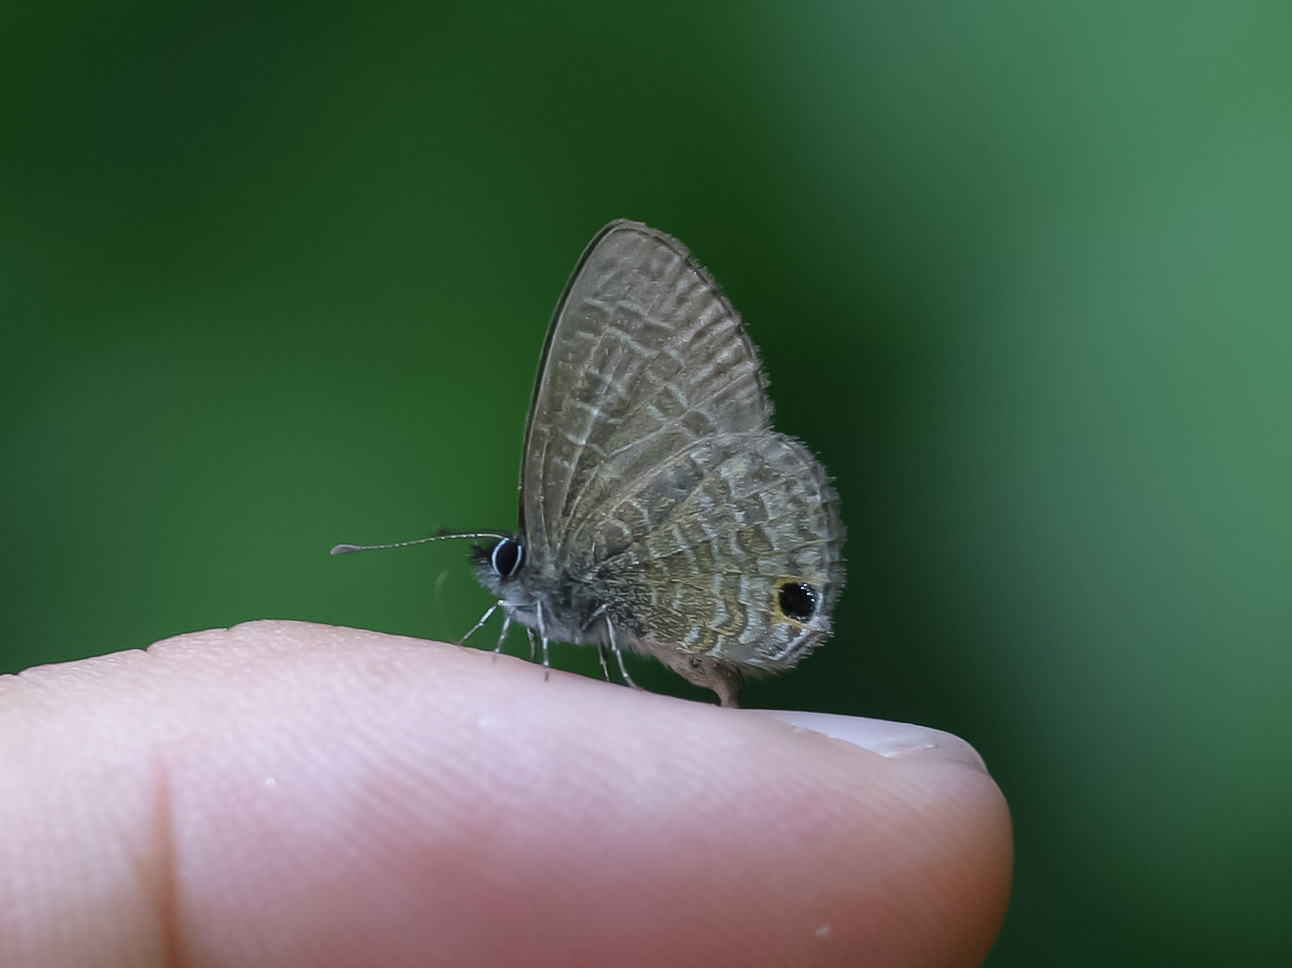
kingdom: Animalia
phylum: Arthropoda
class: Insecta
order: Lepidoptera
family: Lycaenidae
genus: Prosotas
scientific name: Prosotas dubiosa
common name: Tailless lineblue
